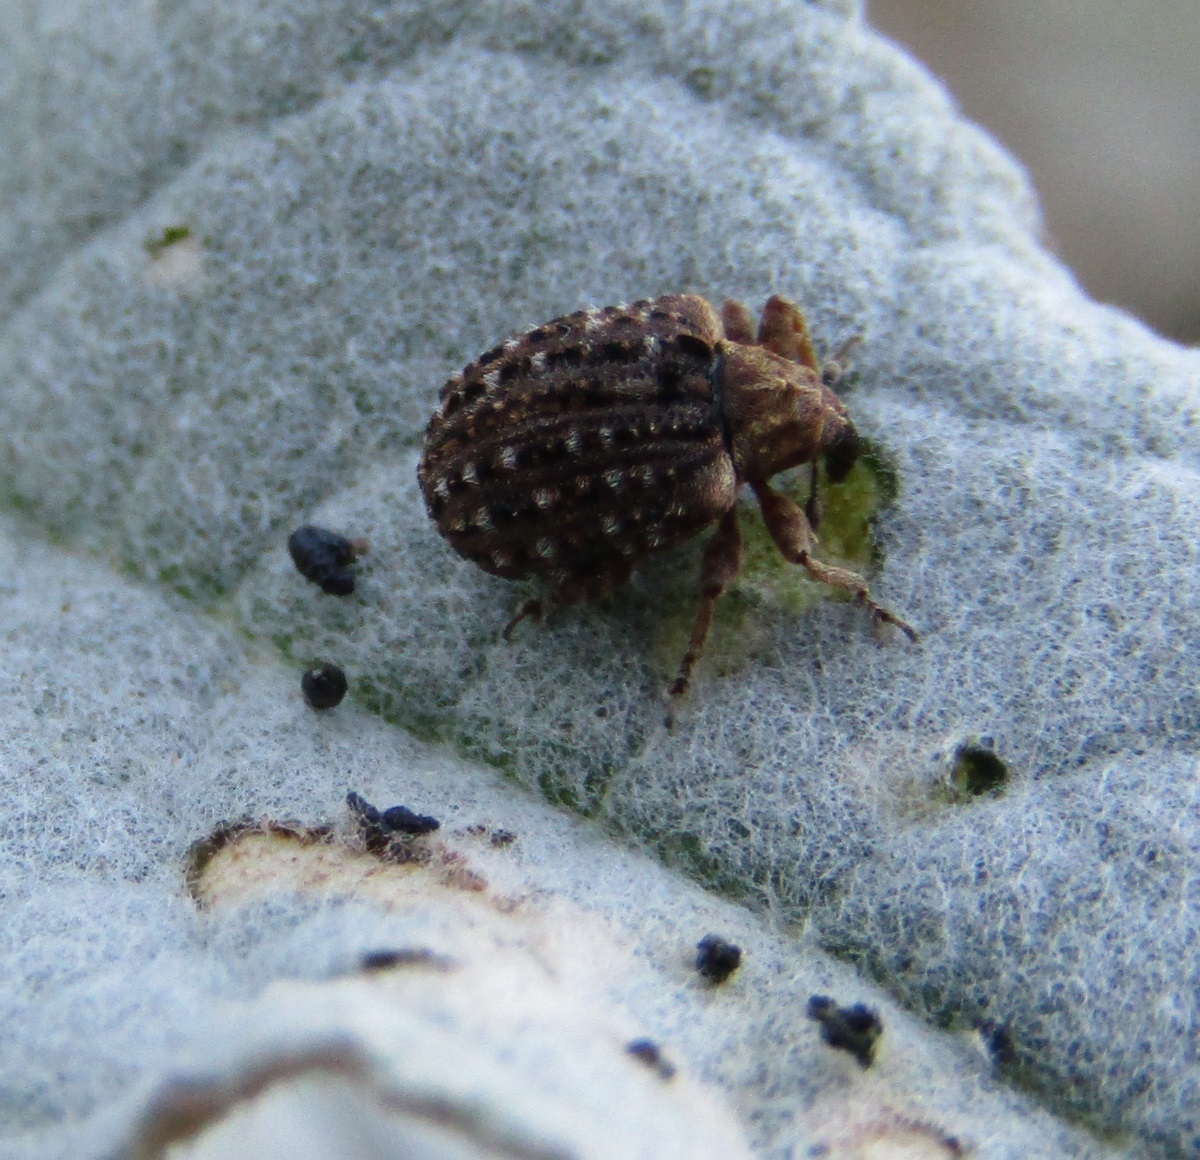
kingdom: Animalia
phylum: Arthropoda
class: Insecta
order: Coleoptera
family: Curculionidae
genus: Cleopus
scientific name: Cleopus japonicus
